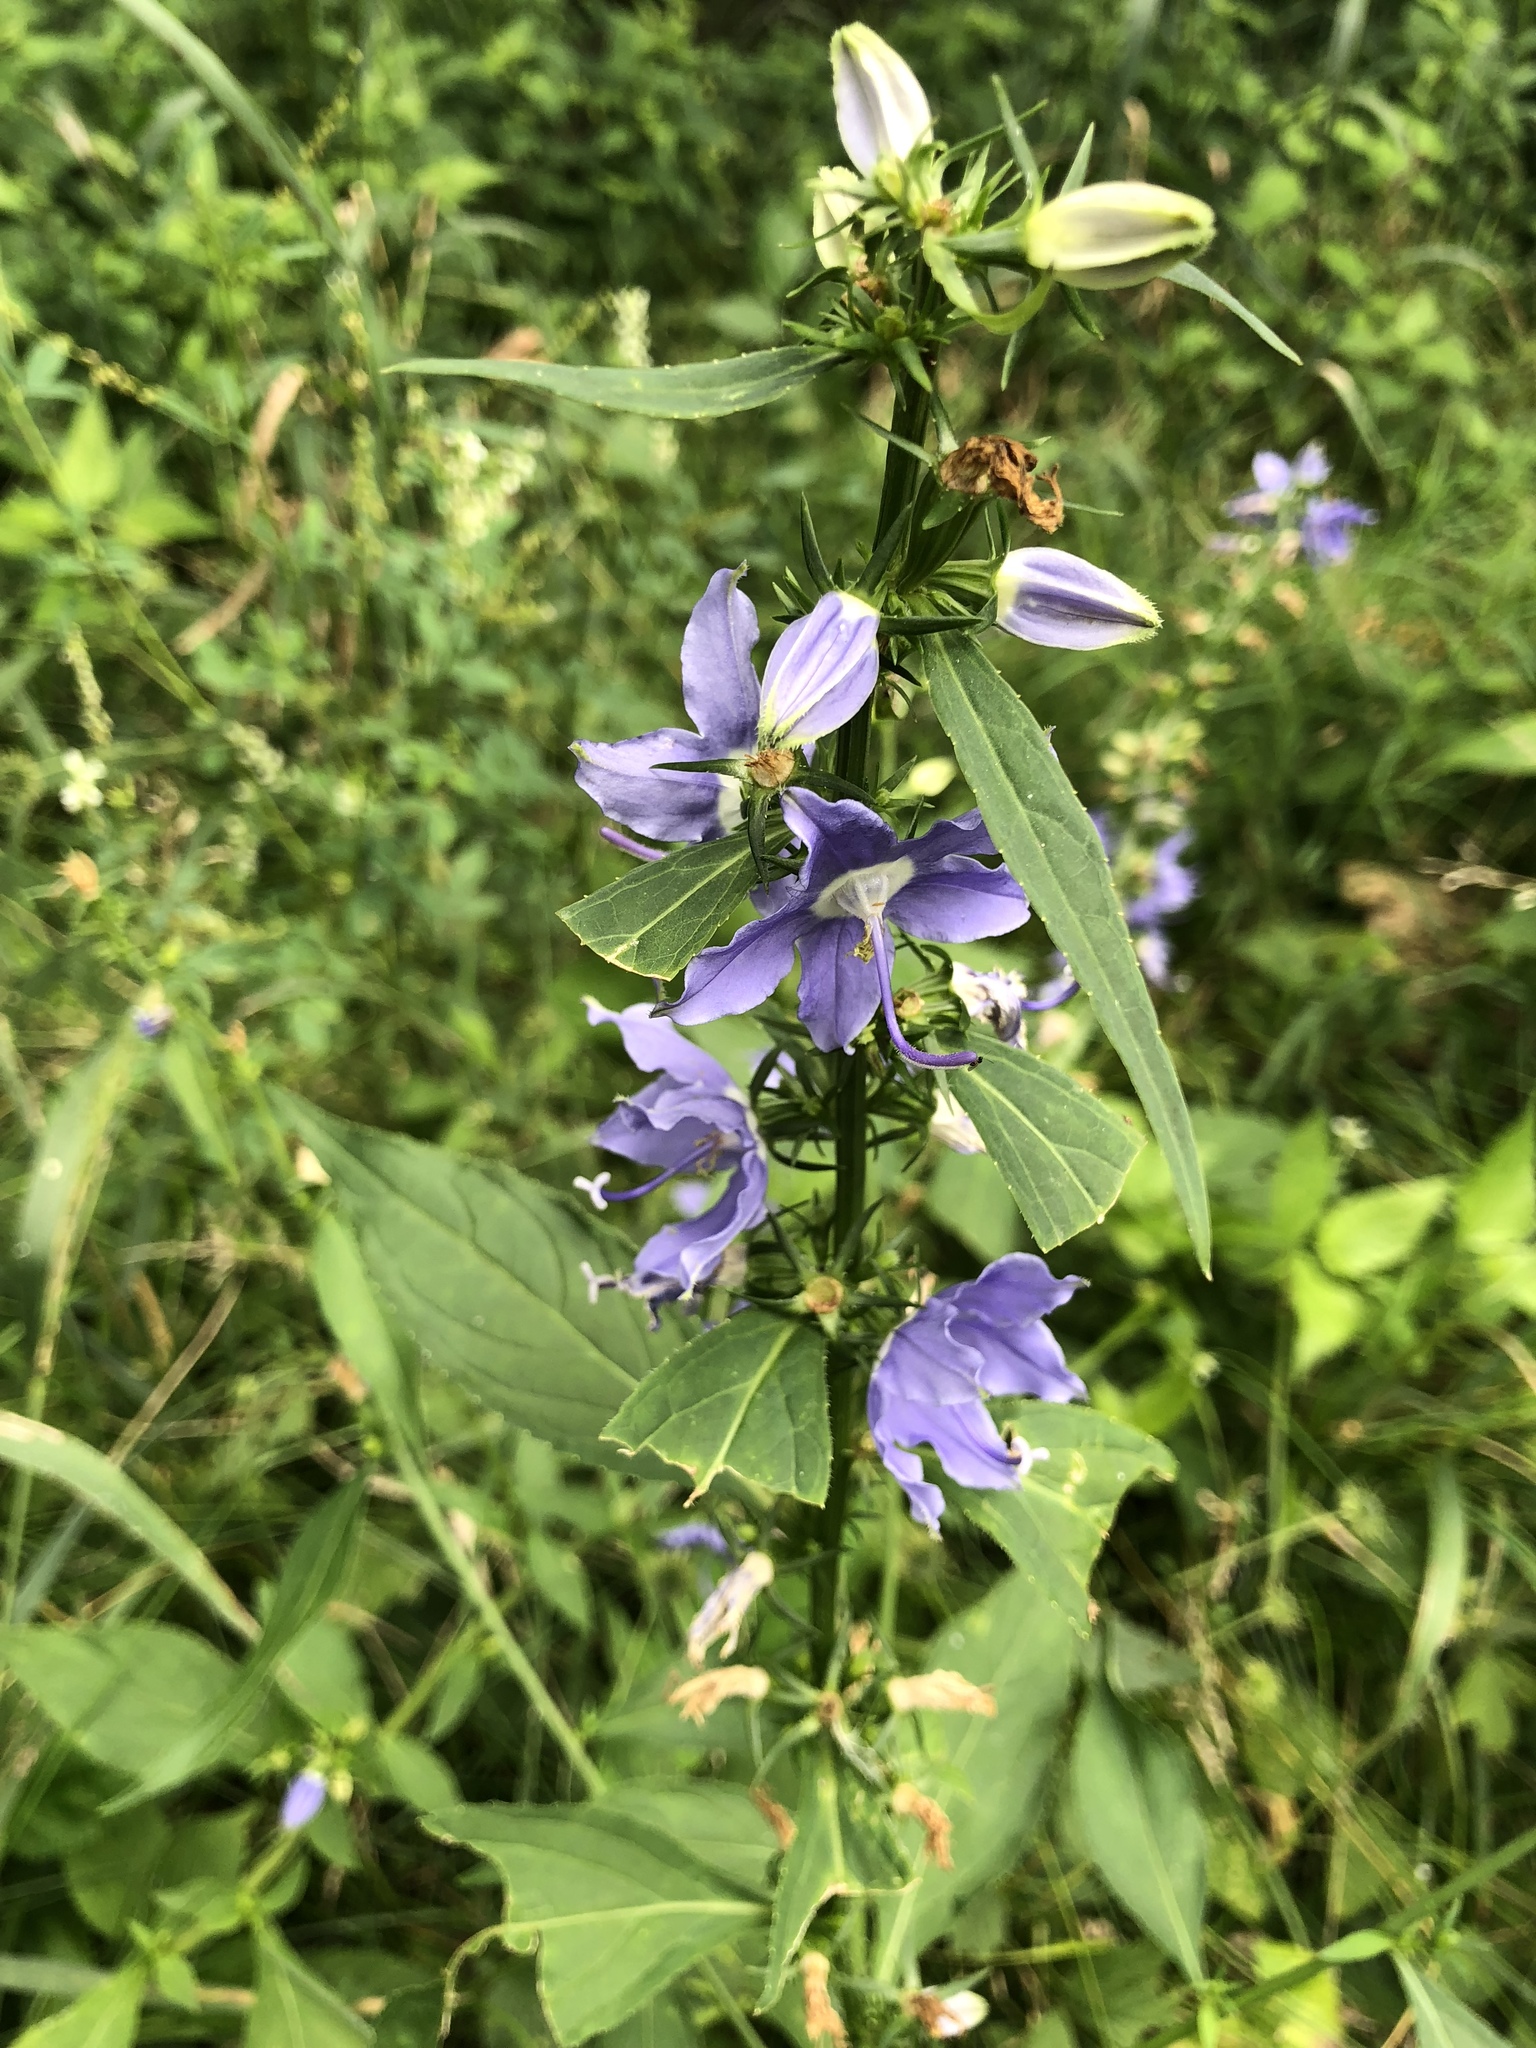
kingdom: Plantae
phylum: Tracheophyta
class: Magnoliopsida
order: Asterales
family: Campanulaceae
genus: Campanulastrum
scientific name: Campanulastrum americanum
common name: American bellflower
